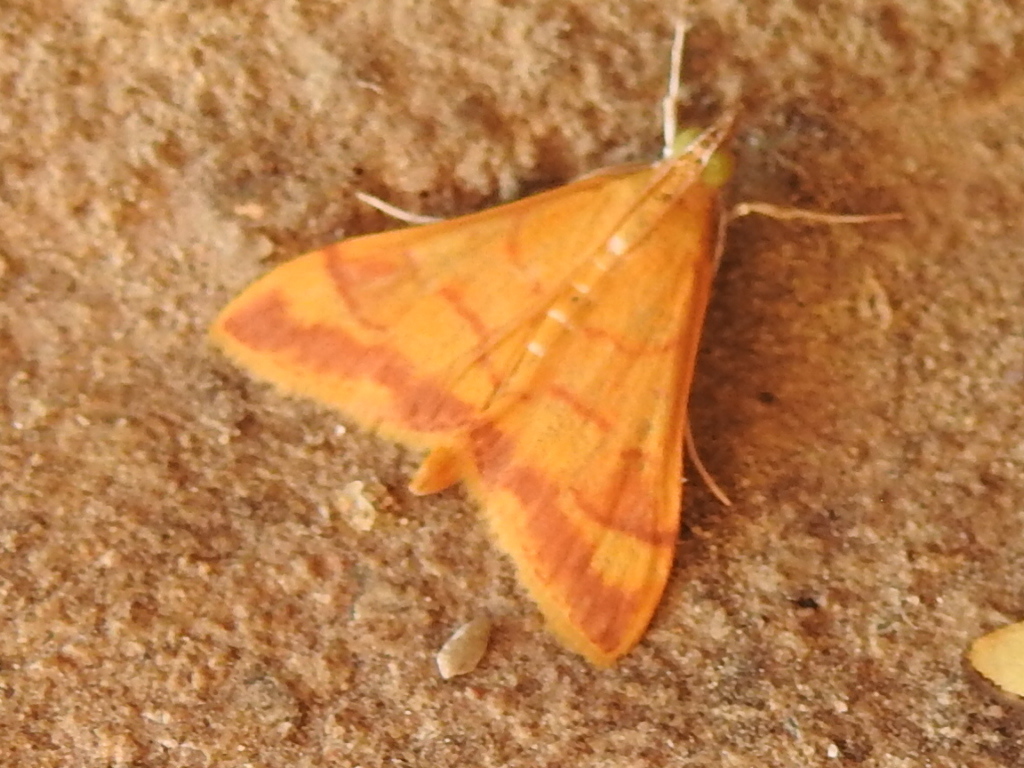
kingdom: Animalia
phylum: Arthropoda
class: Insecta
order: Lepidoptera
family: Crambidae
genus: Pyrausta
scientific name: Pyrausta pseudonythesalis
